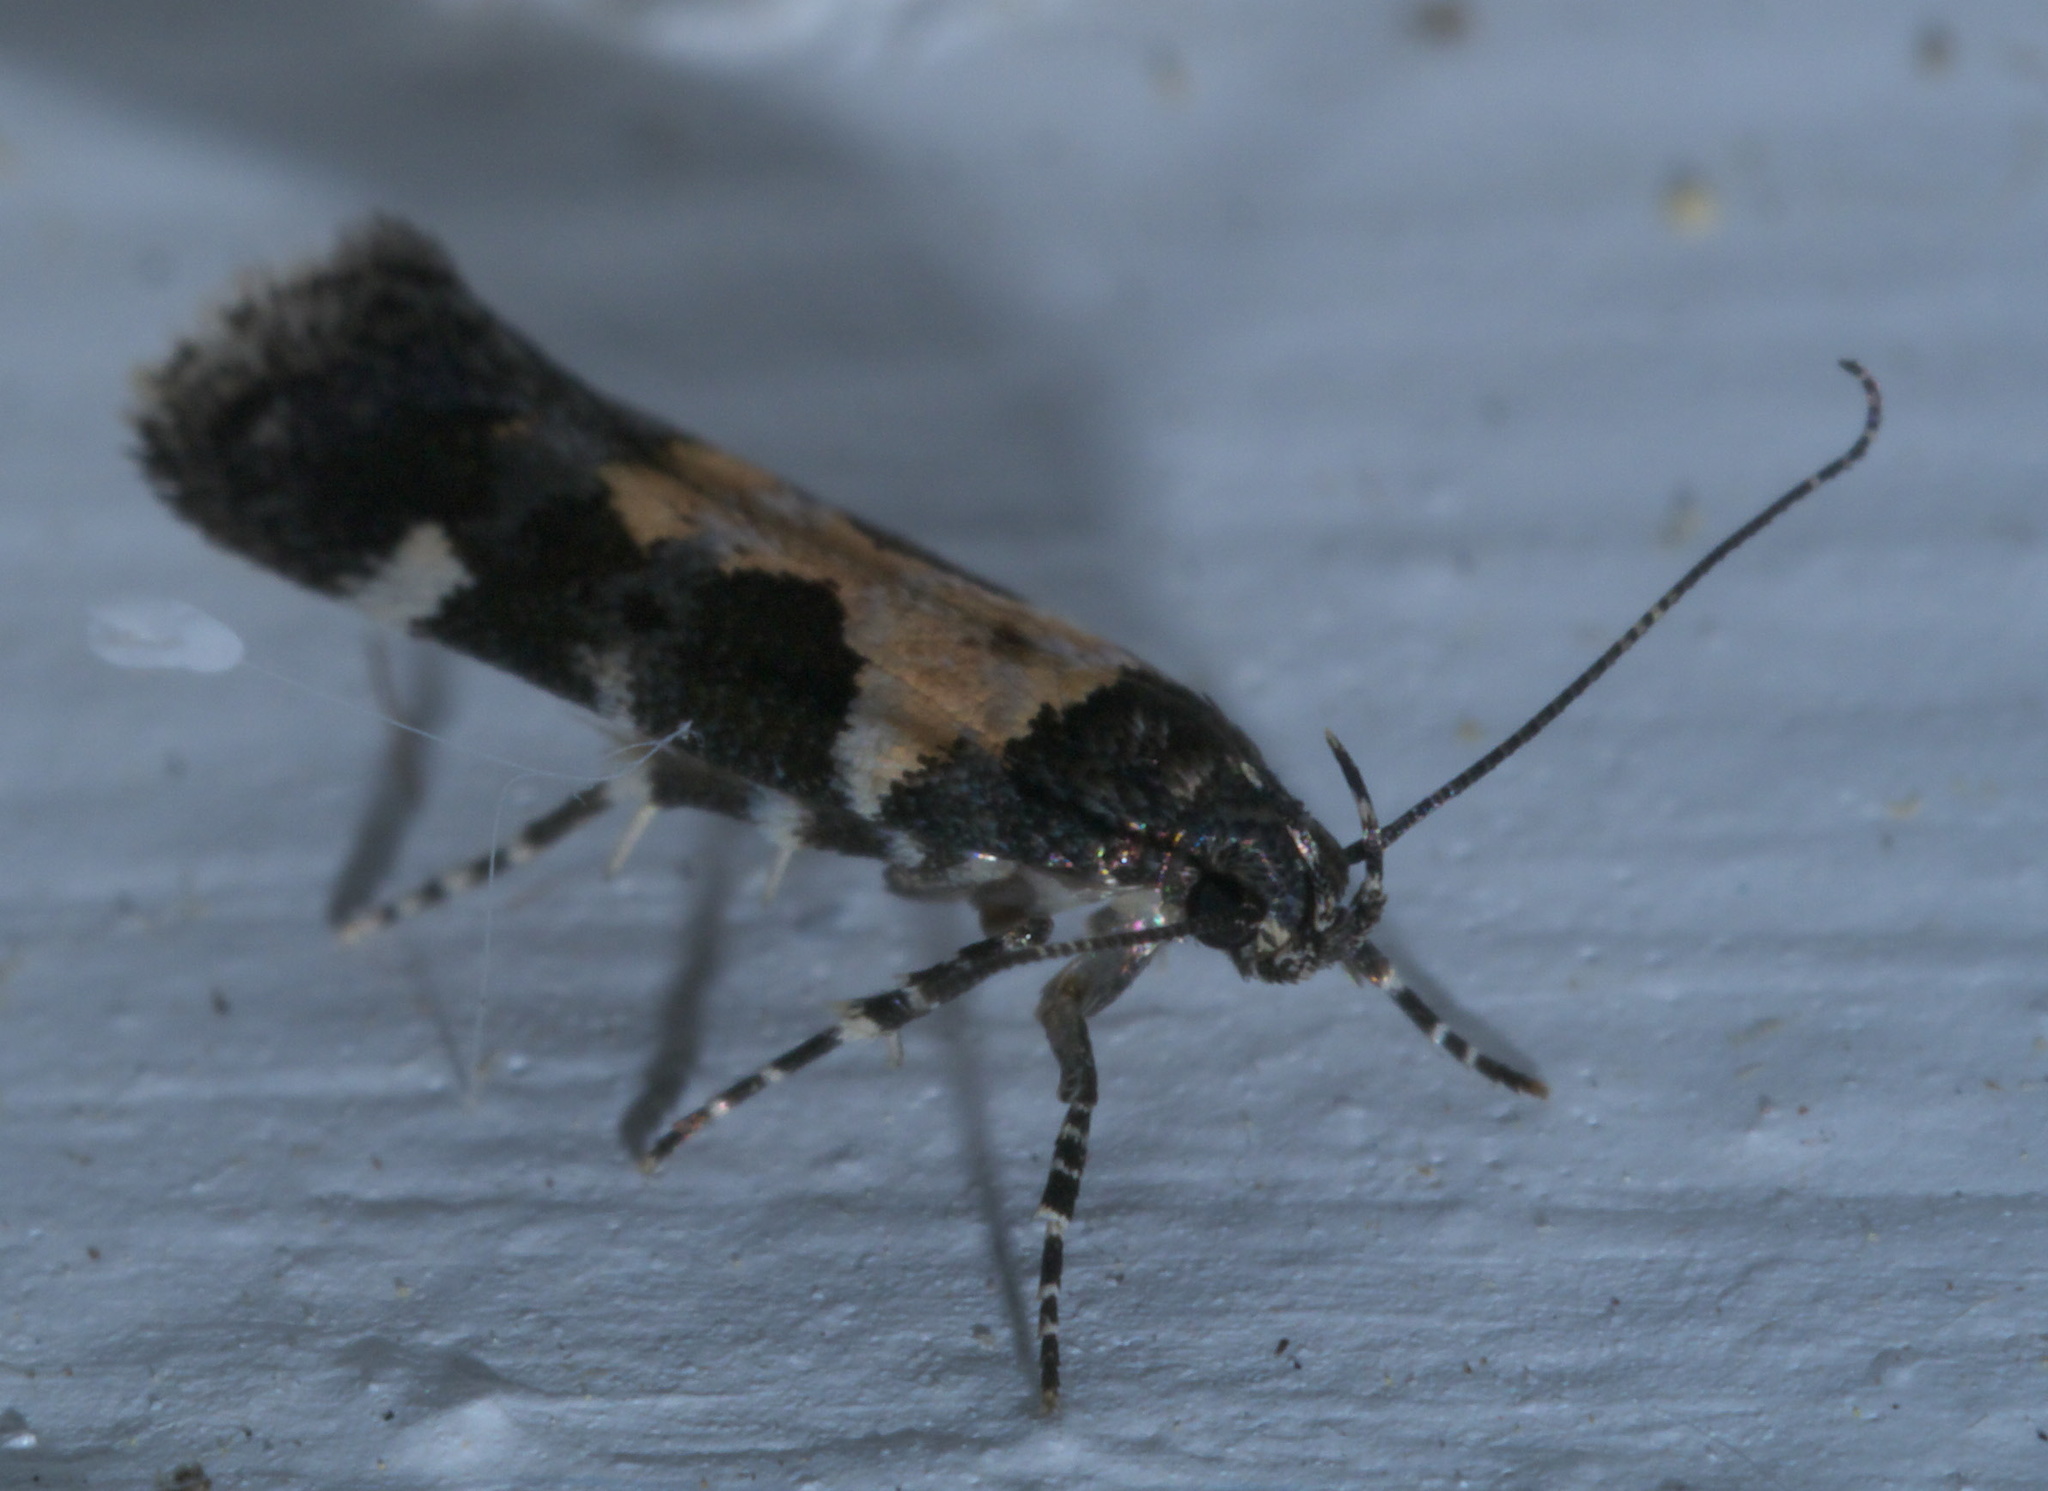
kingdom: Animalia
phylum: Arthropoda
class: Insecta
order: Lepidoptera
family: Gelechiidae
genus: Stegasta
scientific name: Stegasta bosqueella
